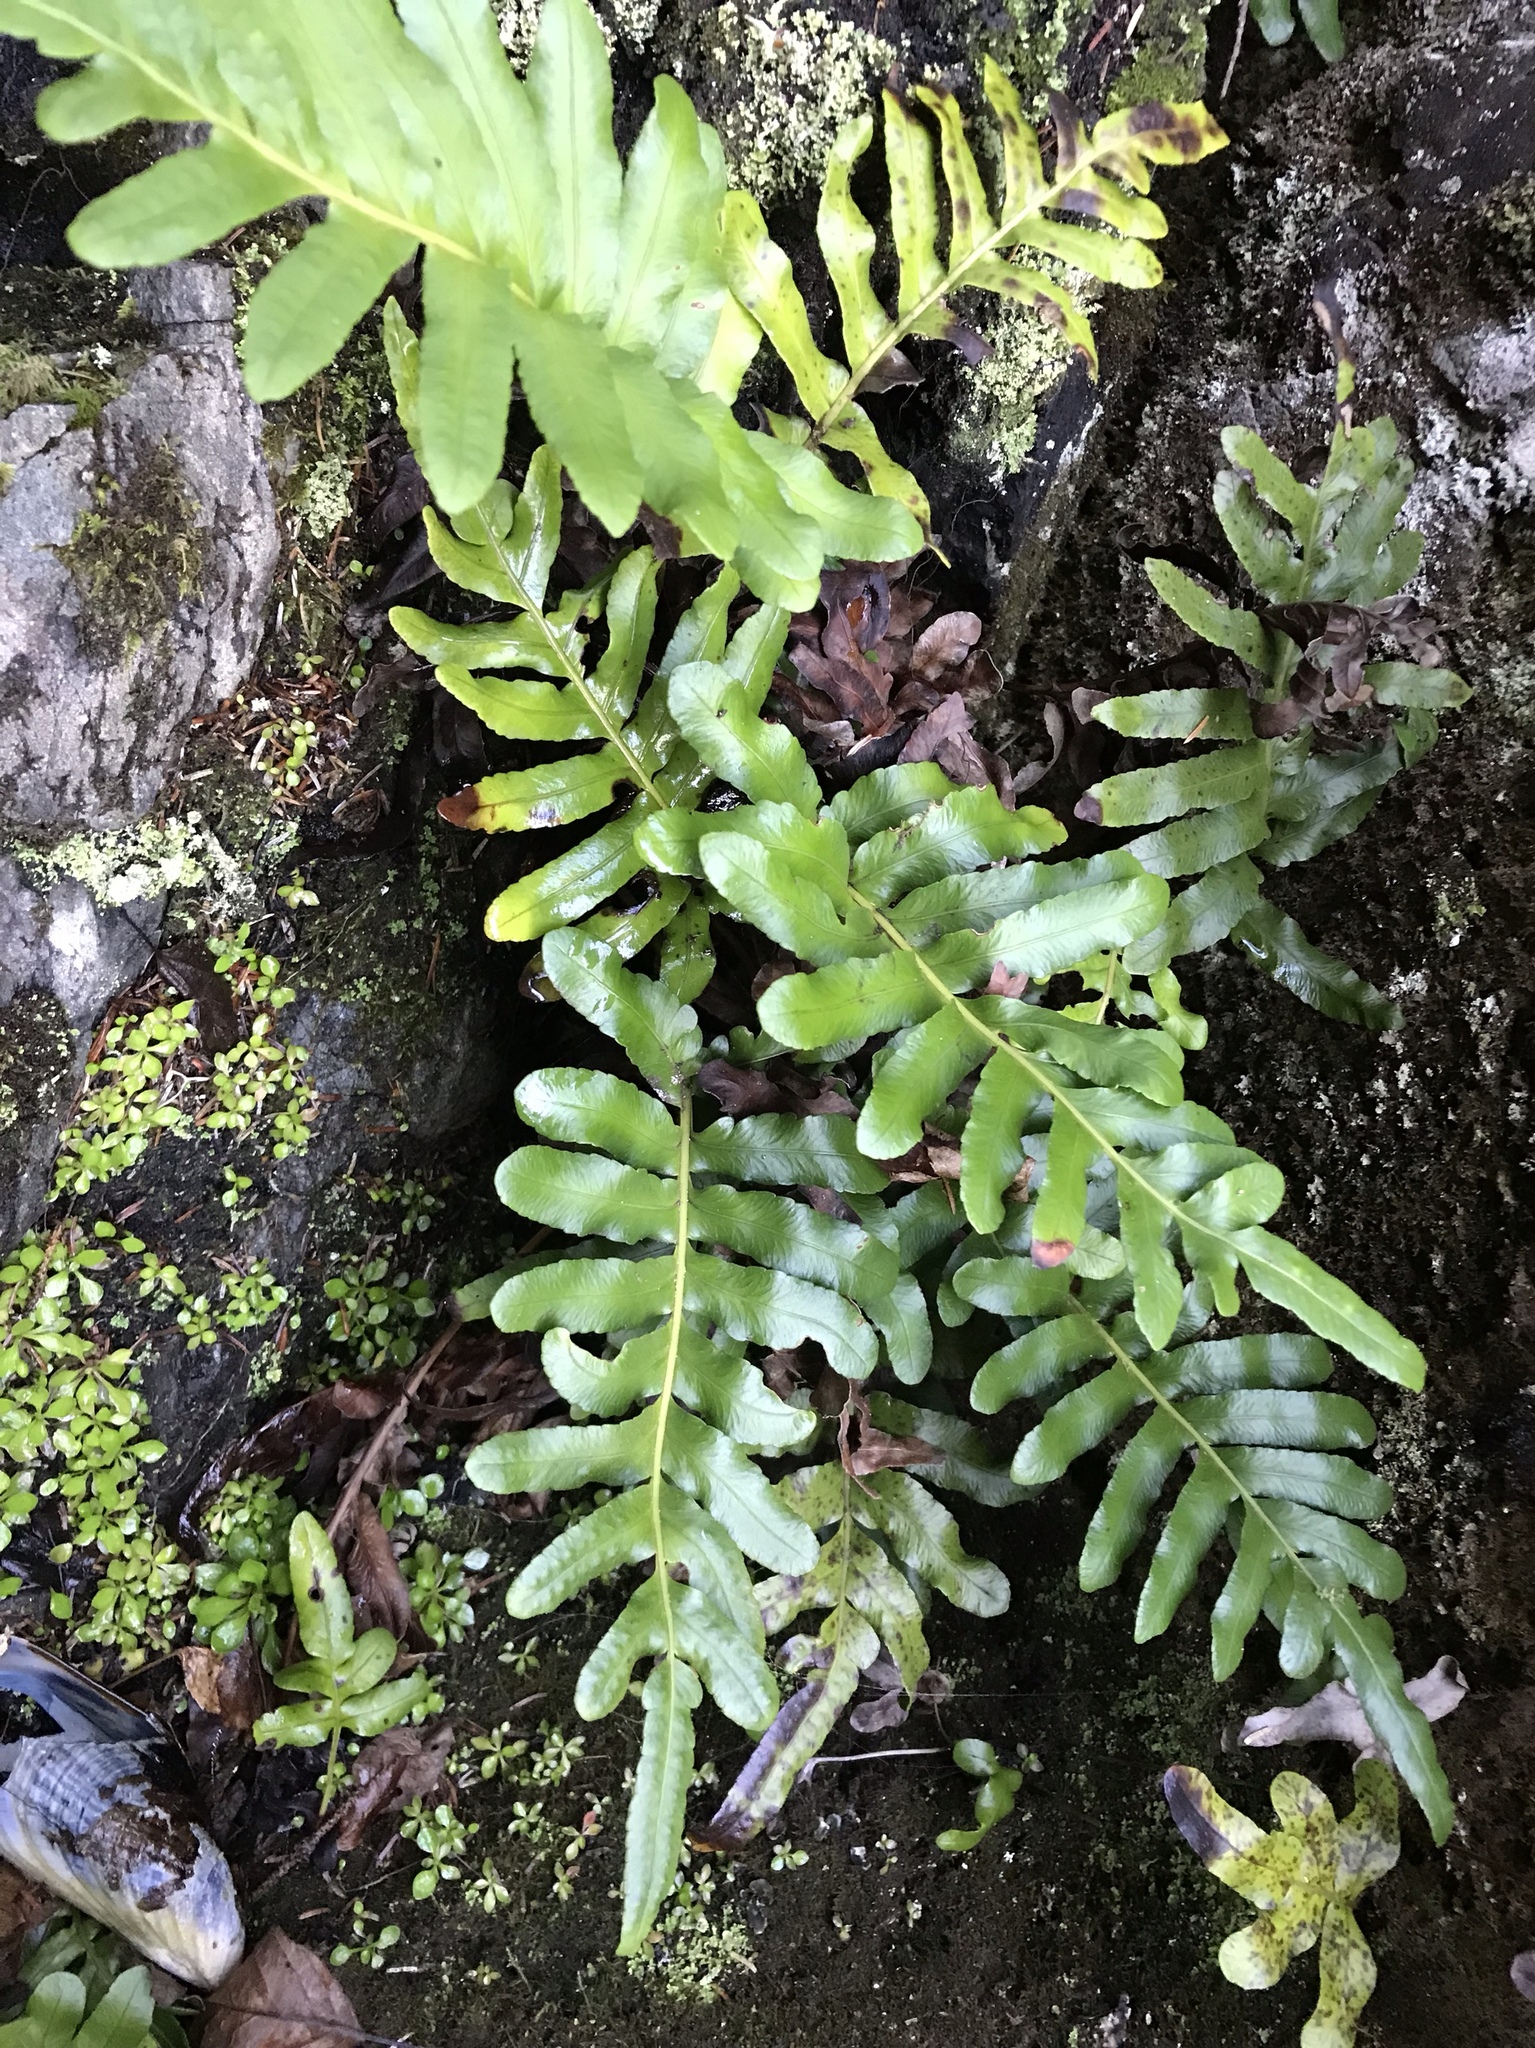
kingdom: Plantae
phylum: Tracheophyta
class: Polypodiopsida
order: Polypodiales
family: Polypodiaceae
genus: Polypodium
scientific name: Polypodium scouleri
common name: Scouler's polypody
